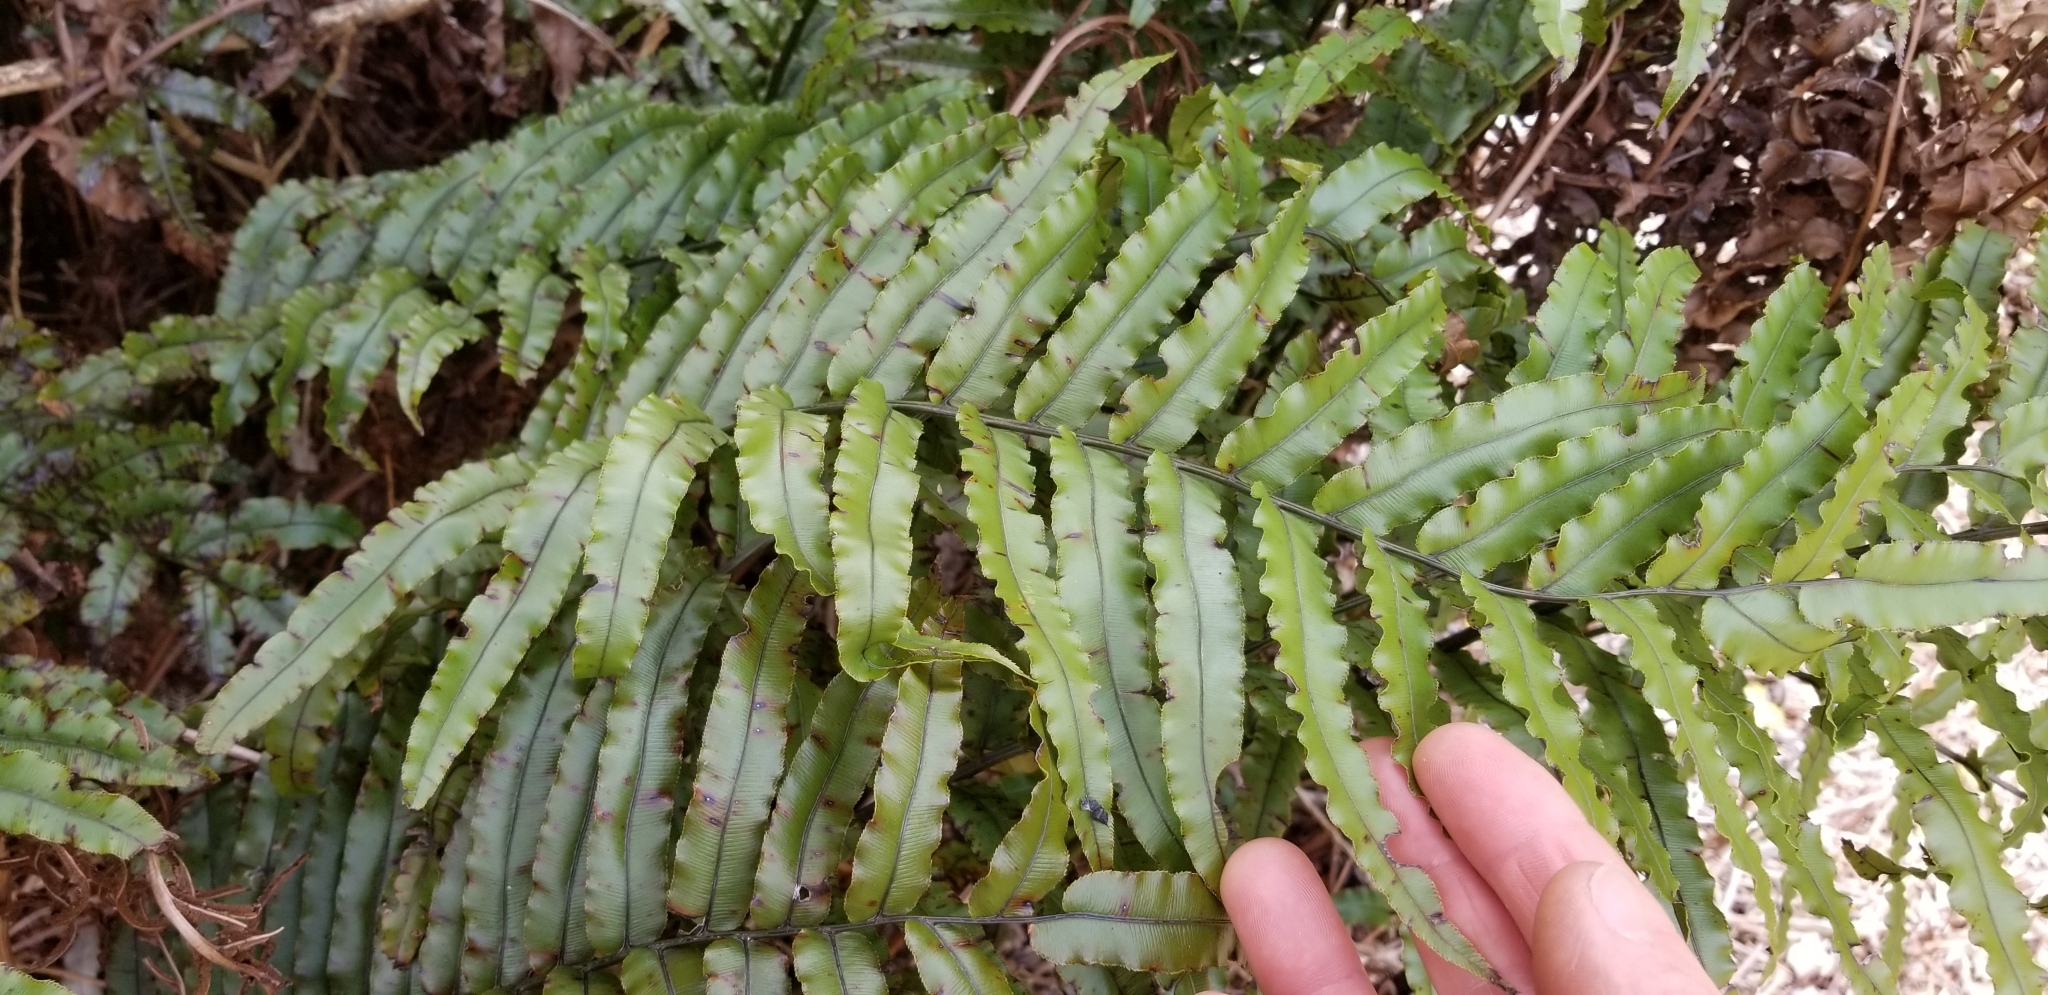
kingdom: Plantae
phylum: Tracheophyta
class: Polypodiopsida
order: Polypodiales
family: Blechnaceae
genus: Parablechnum
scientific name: Parablechnum montanum
